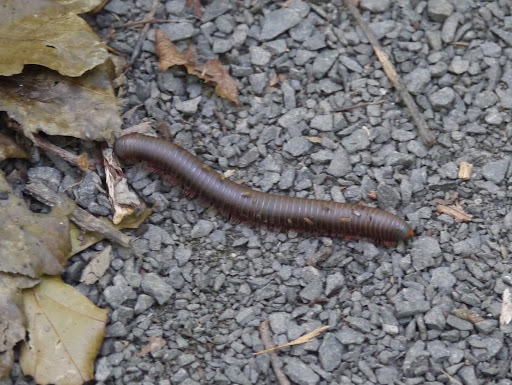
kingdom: Animalia
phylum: Arthropoda
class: Diplopoda
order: Spirobolida
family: Spirobolidae
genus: Narceus
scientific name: Narceus
